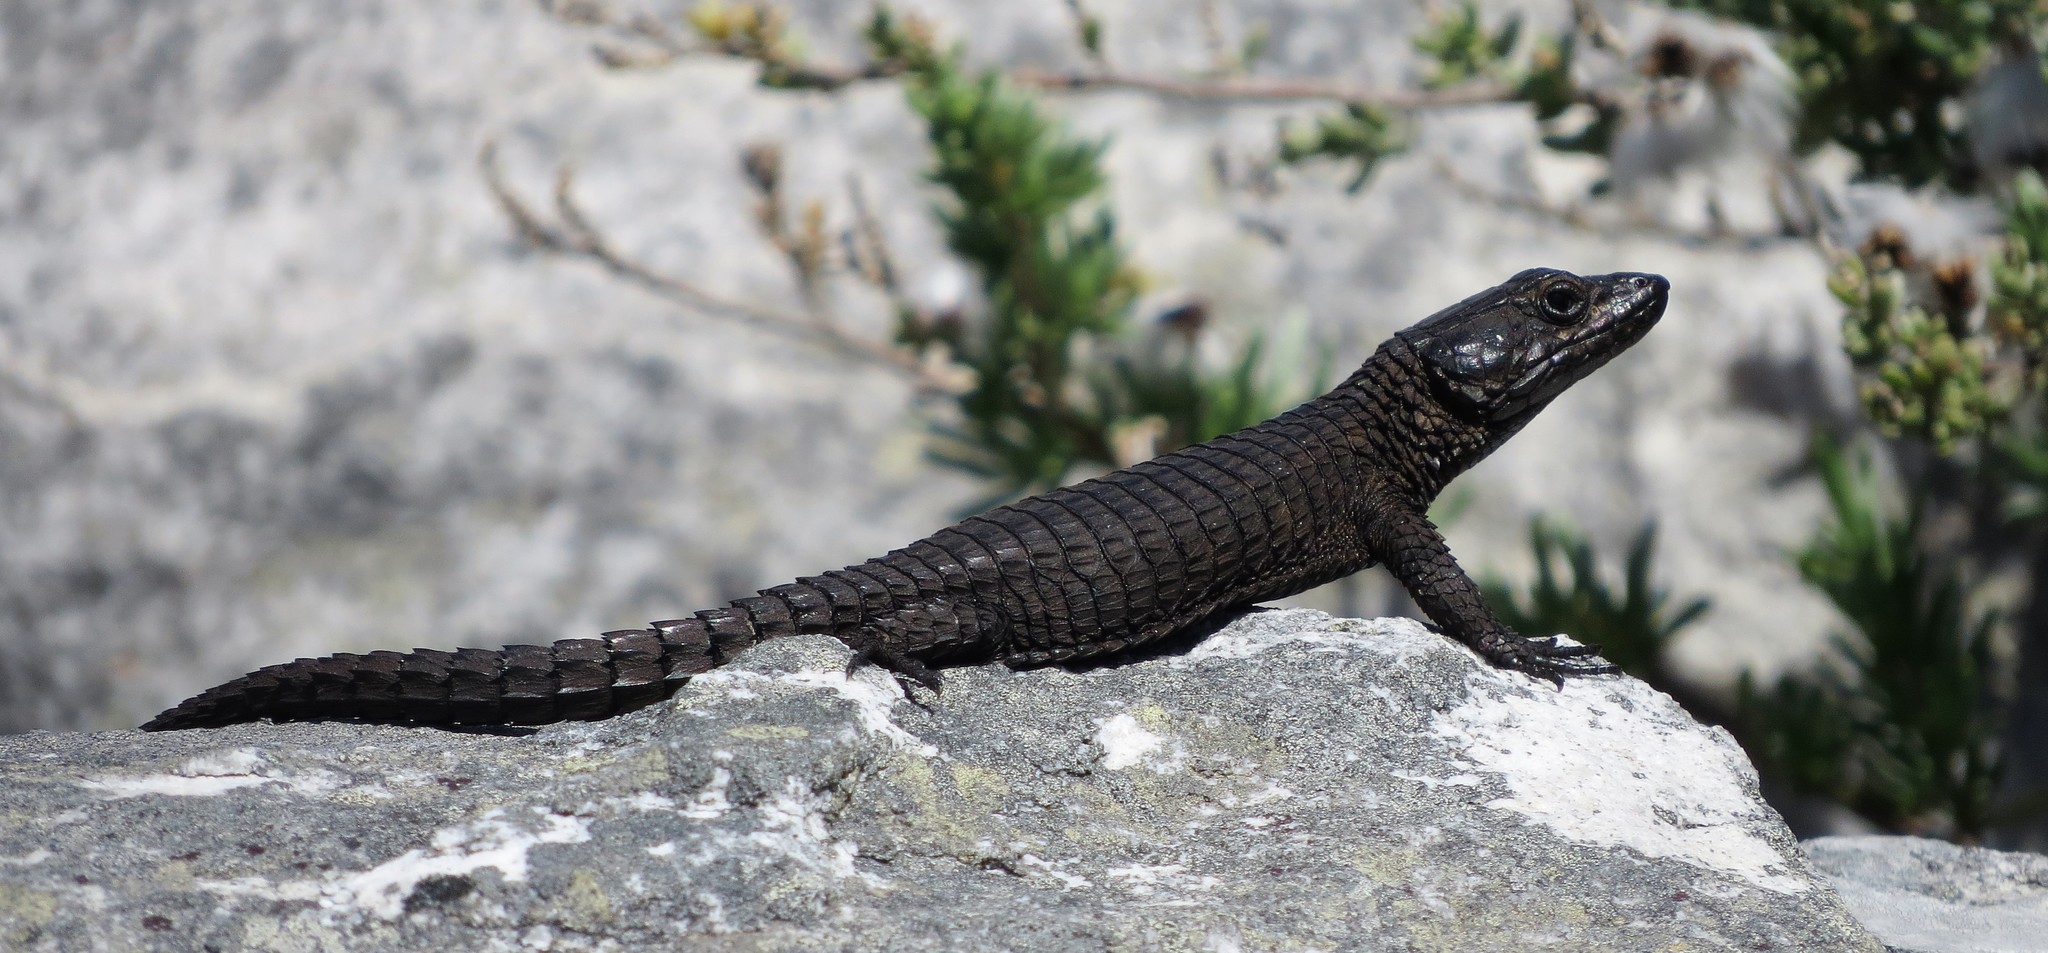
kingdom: Animalia
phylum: Chordata
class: Squamata
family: Cordylidae
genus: Cordylus
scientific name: Cordylus niger
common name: Black girdled lizard
